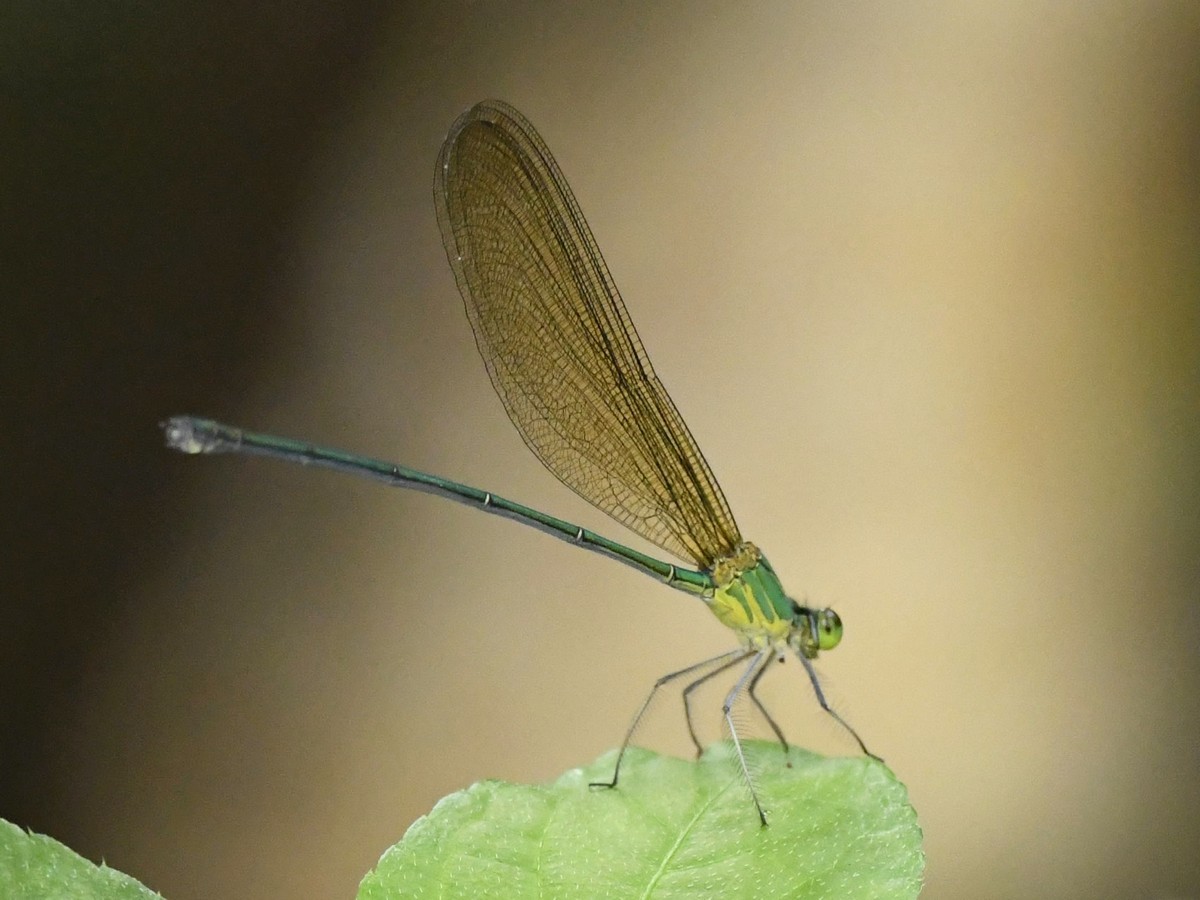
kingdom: Animalia
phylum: Arthropoda
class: Insecta
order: Odonata
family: Calopterygidae
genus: Vestalis
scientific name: Vestalis gracilis
